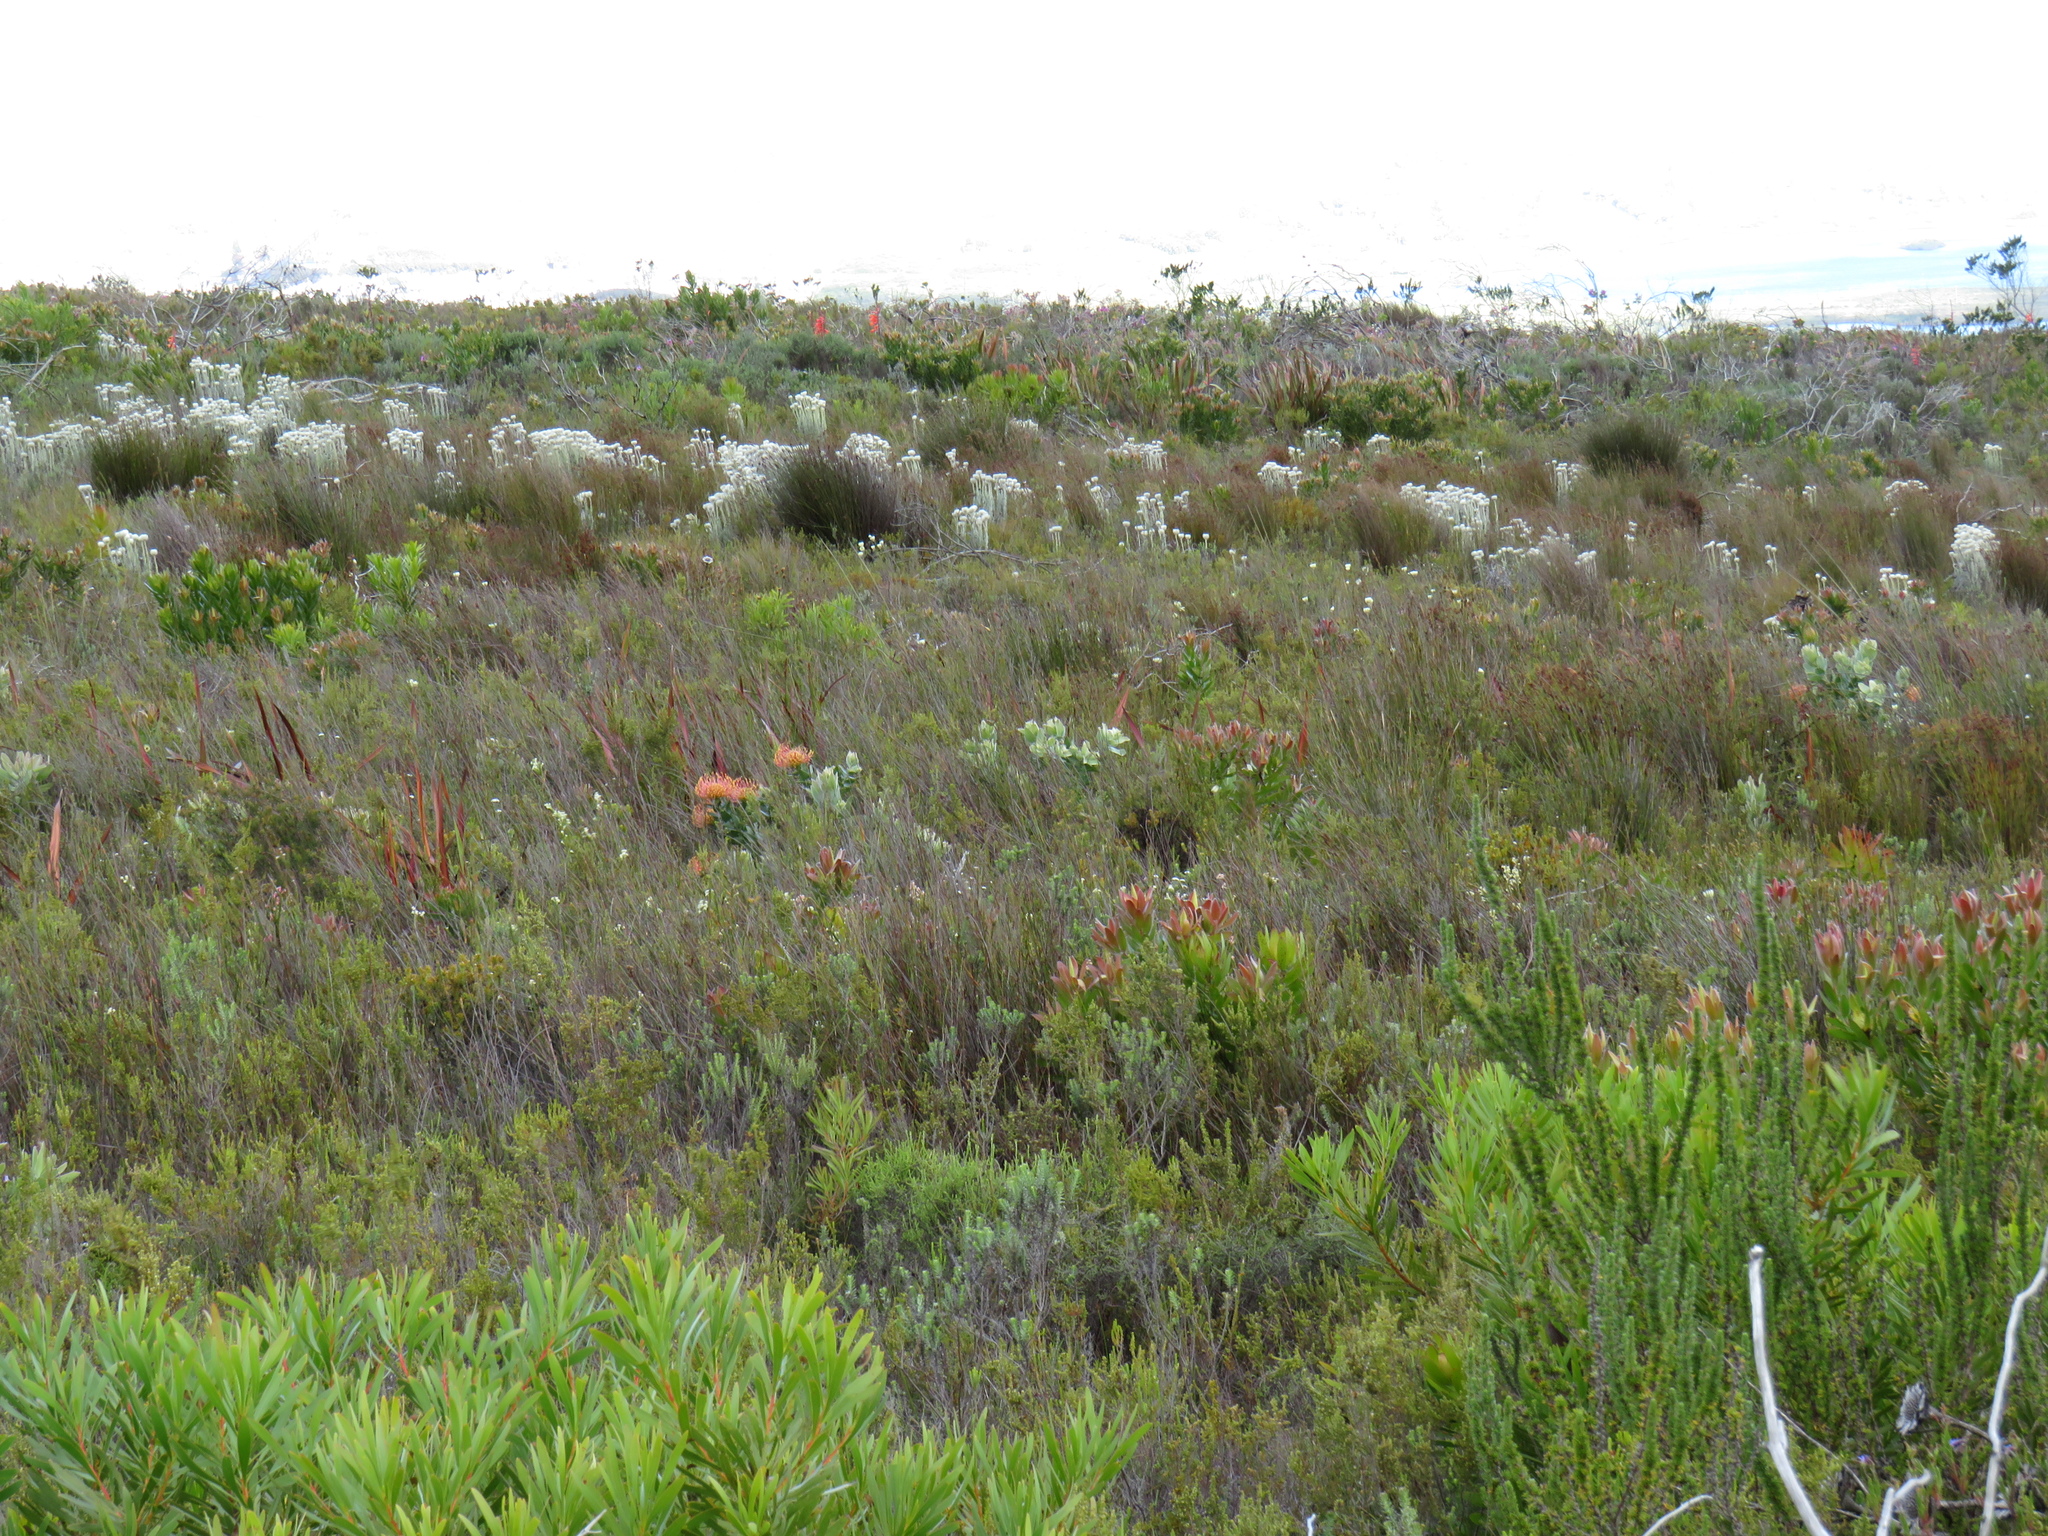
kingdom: Plantae
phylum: Tracheophyta
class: Magnoliopsida
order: Proteales
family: Proteaceae
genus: Leucospermum
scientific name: Leucospermum cordifolium
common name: Red pincushion-protea
